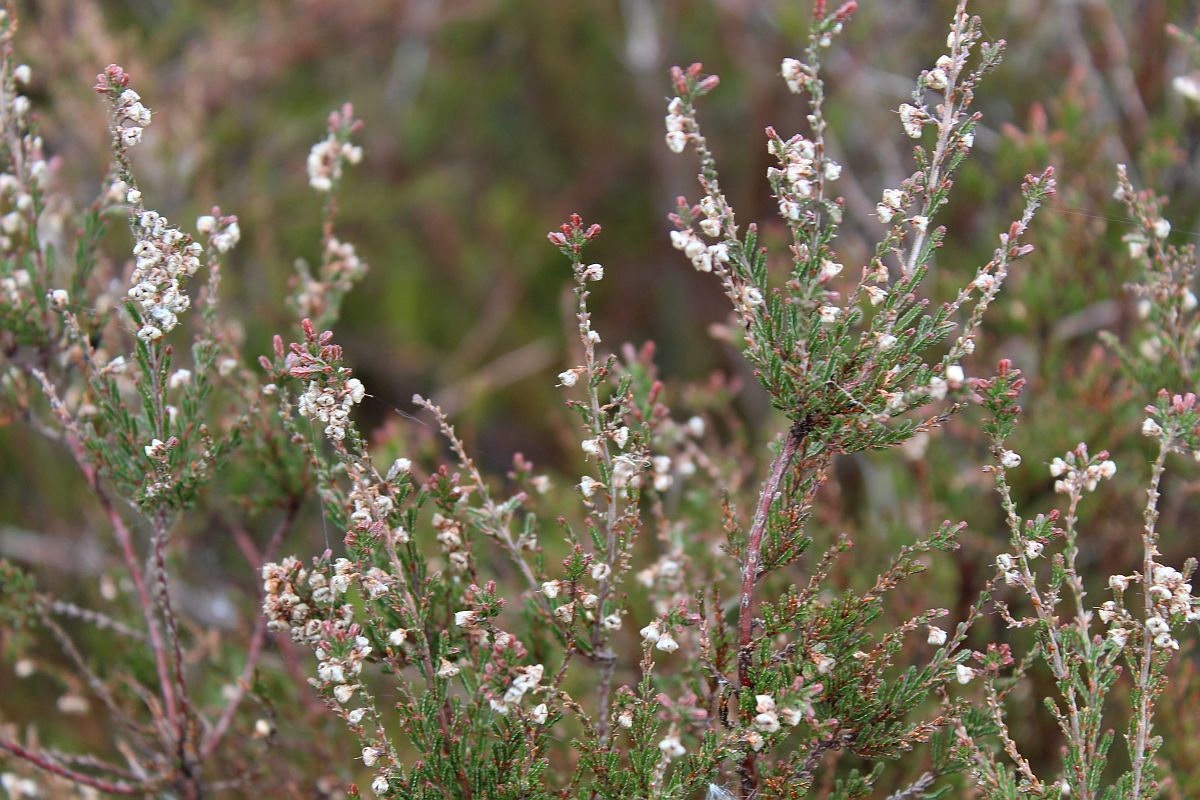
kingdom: Plantae
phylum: Tracheophyta
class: Magnoliopsida
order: Ericales
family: Ericaceae
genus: Calluna
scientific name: Calluna vulgaris
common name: Heather
